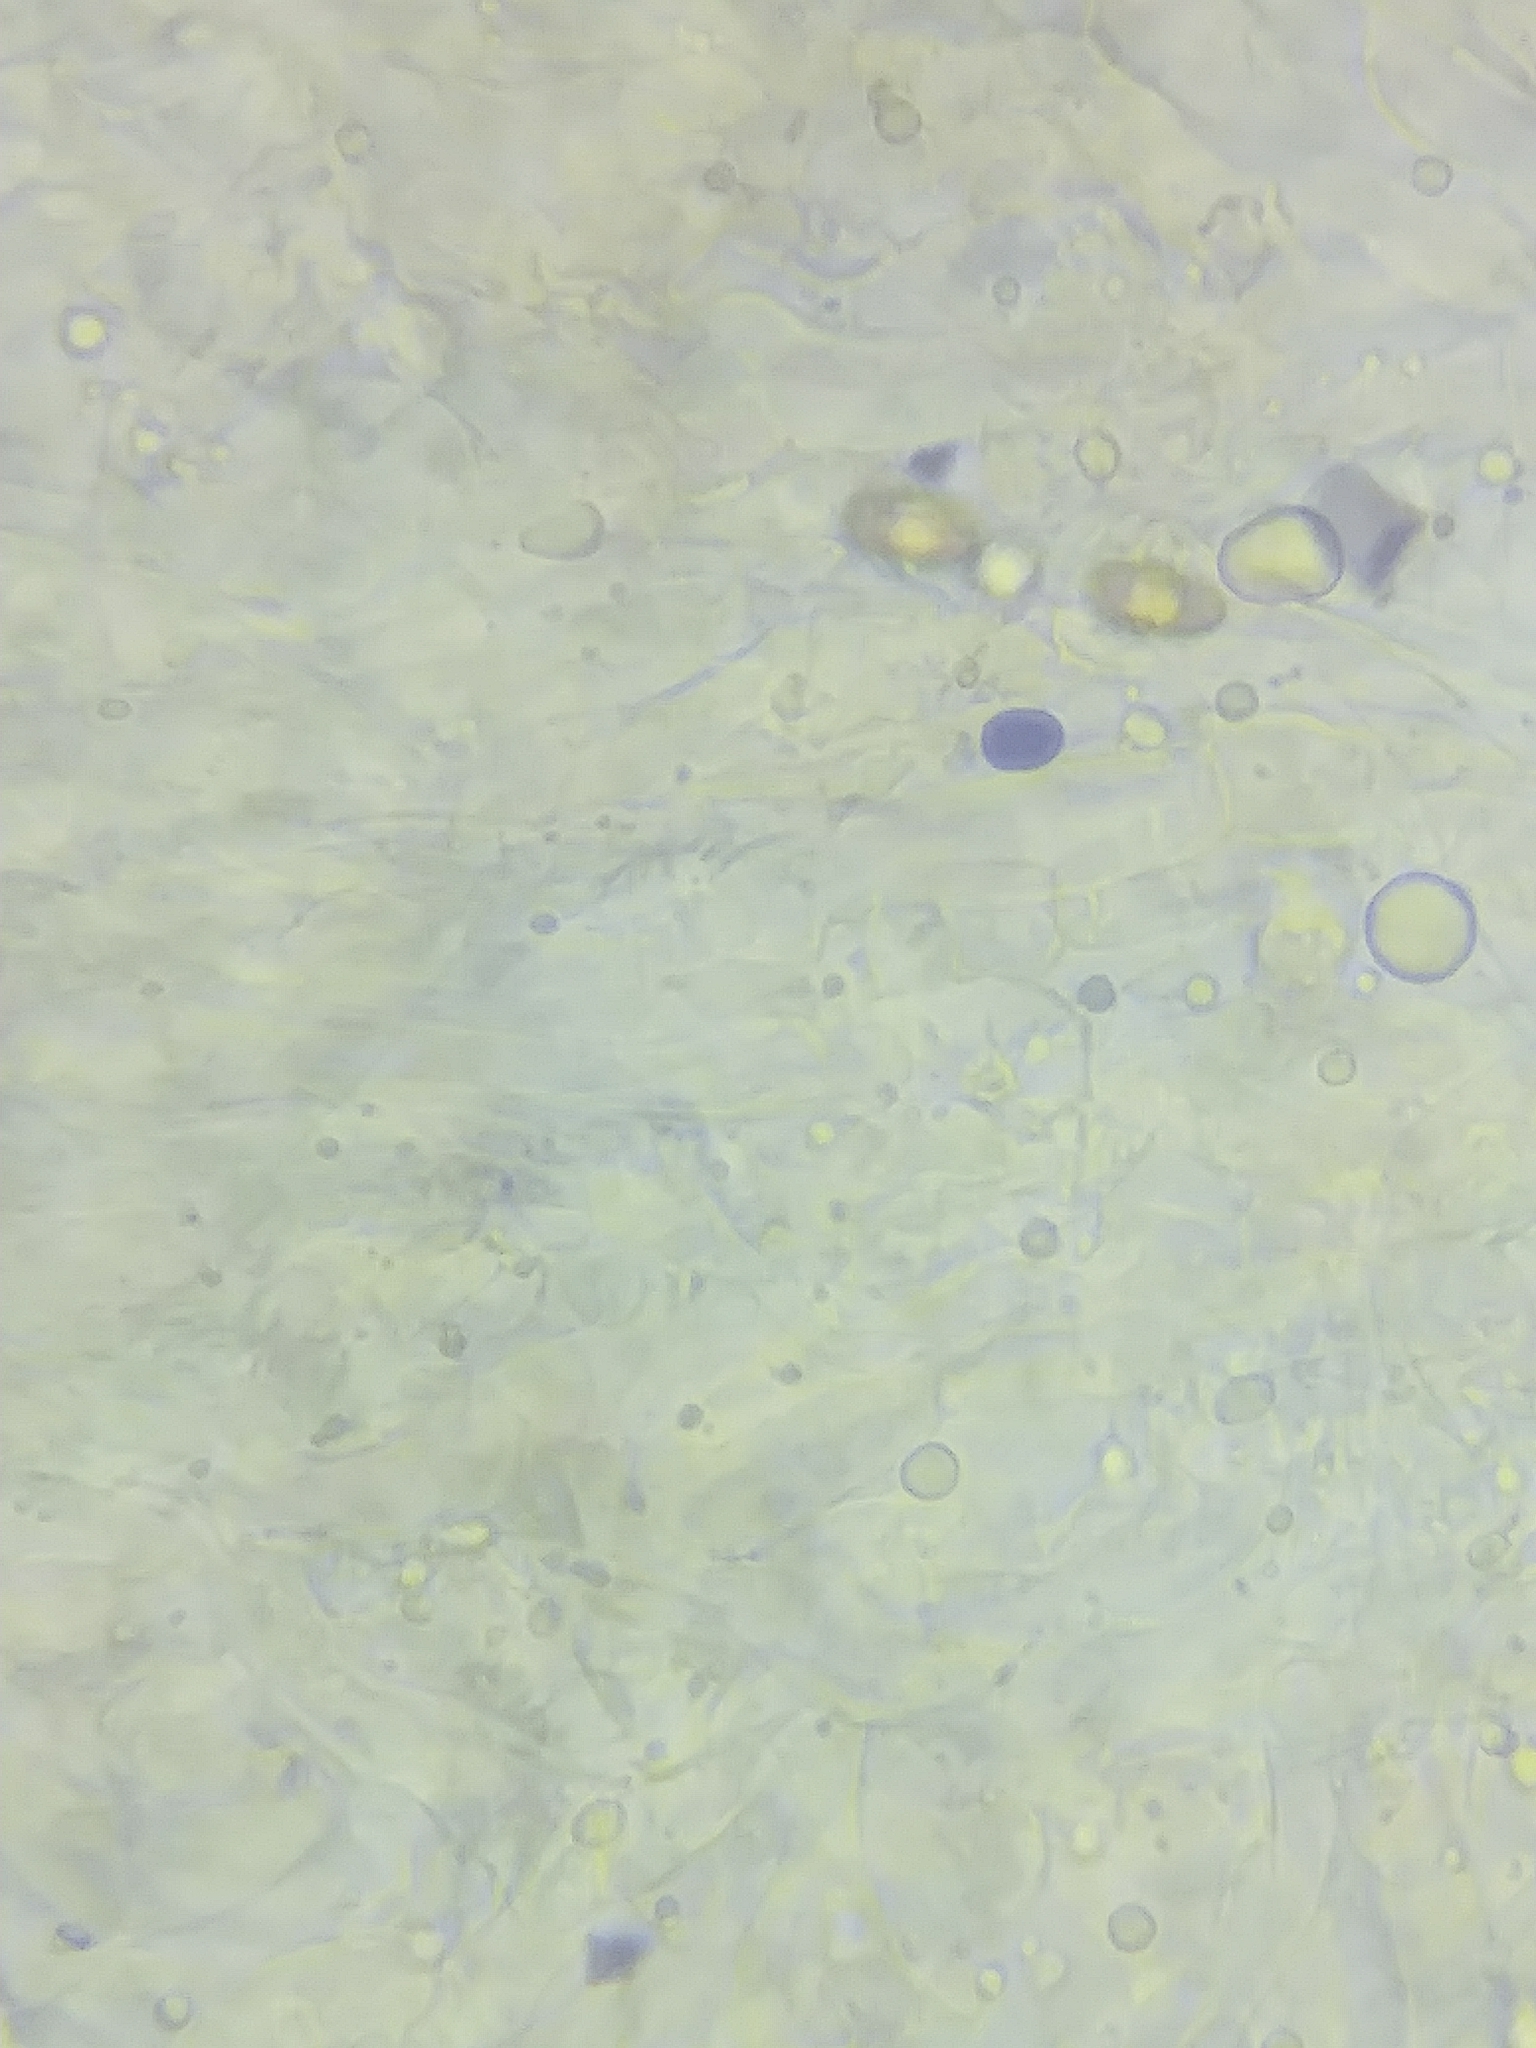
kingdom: Fungi
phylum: Basidiomycota
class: Agaricomycetes
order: Agaricales
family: Tricholomataceae
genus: Clitocybe
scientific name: Clitocybe americana
